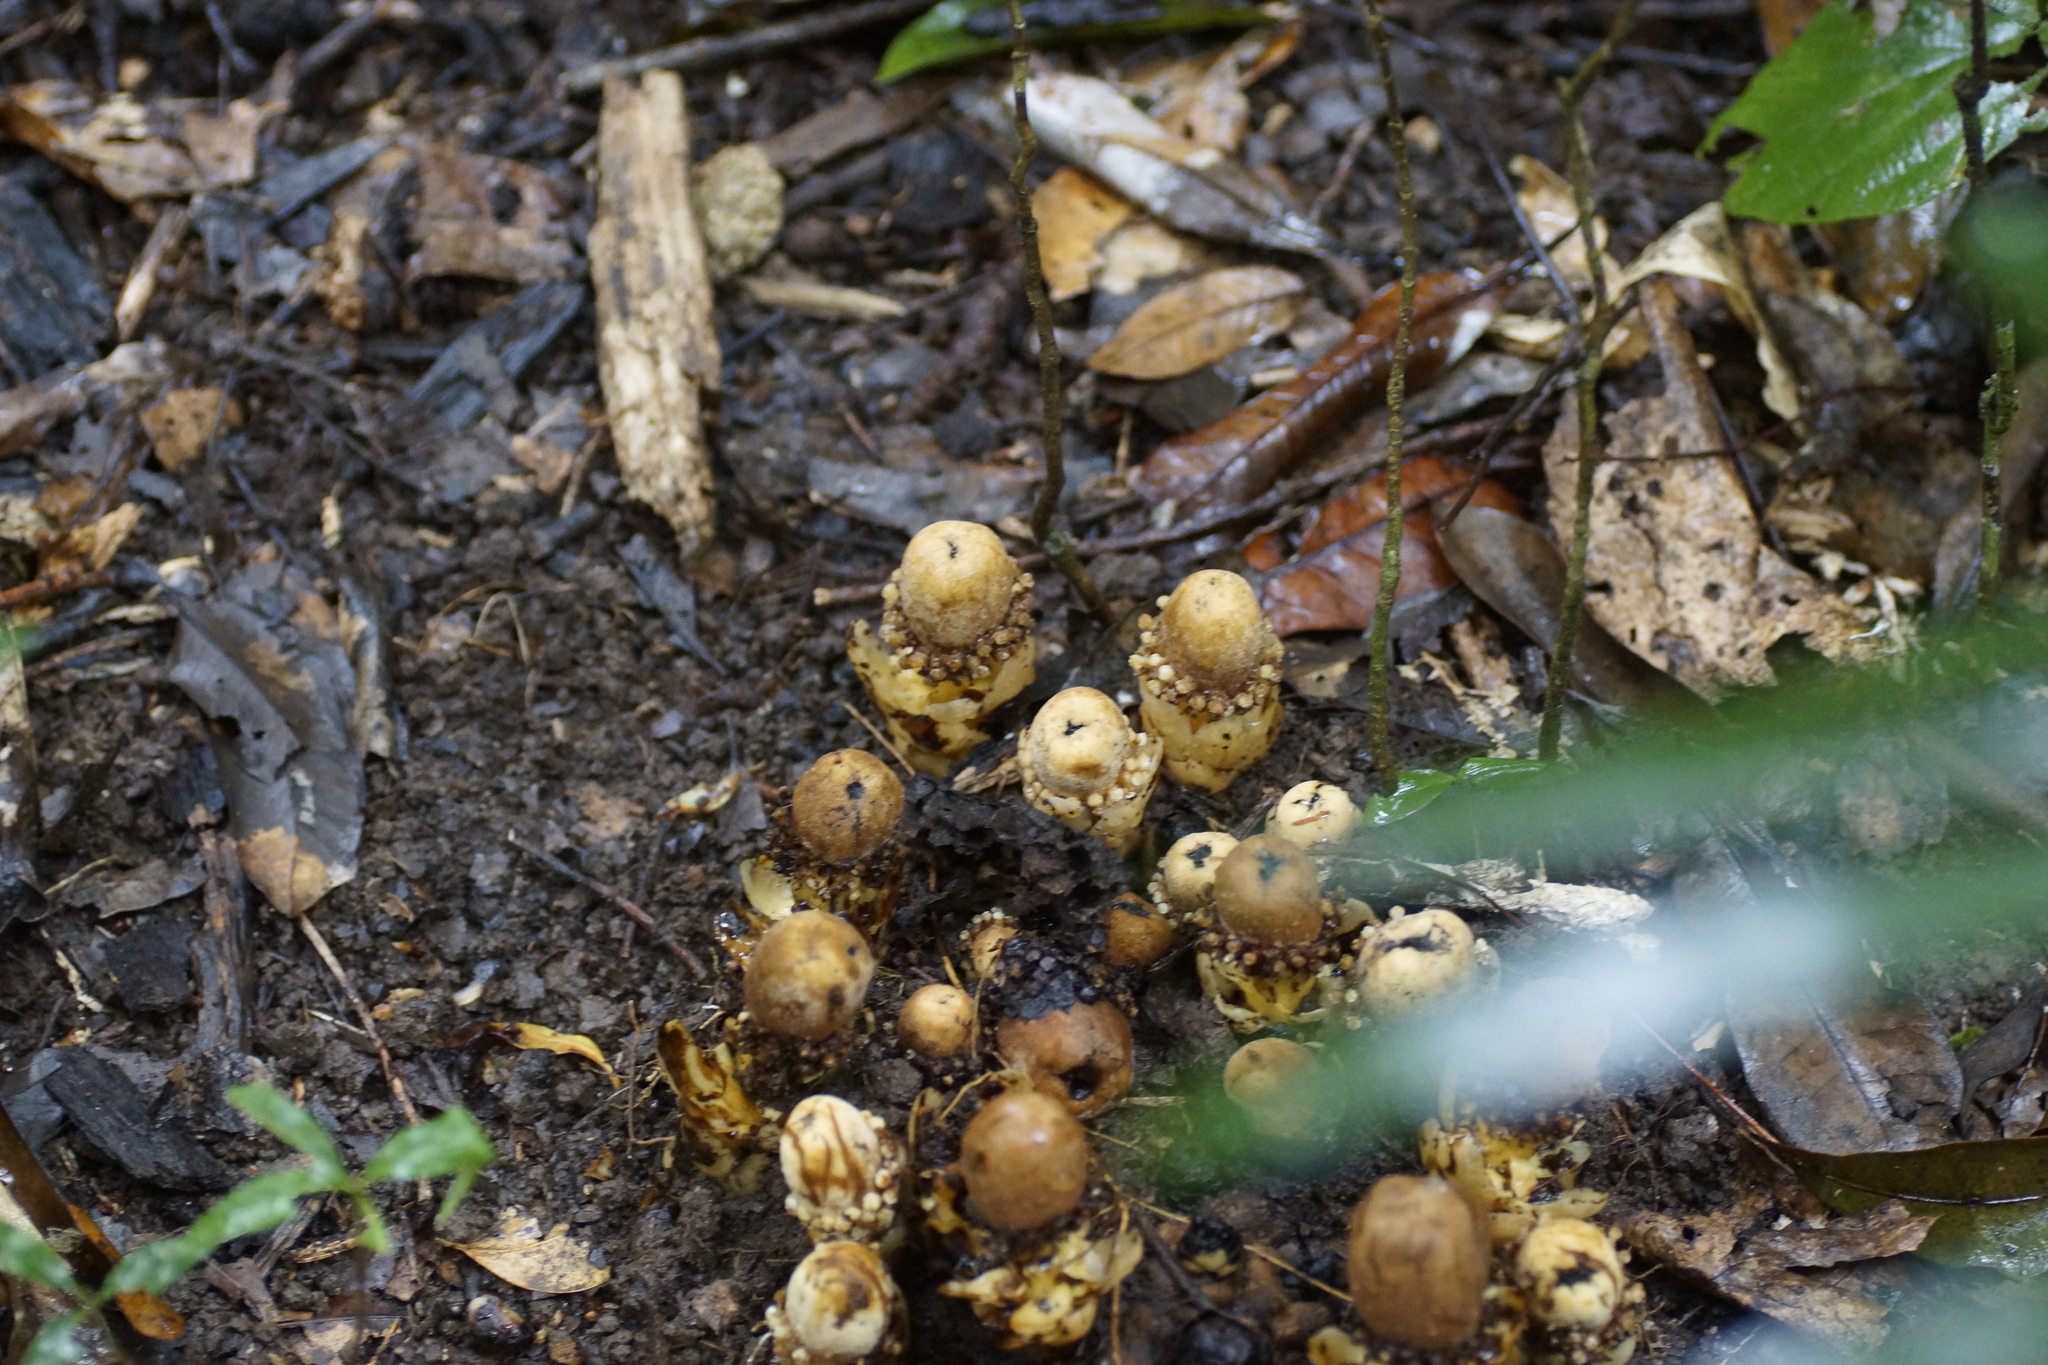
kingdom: Plantae
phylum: Tracheophyta
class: Magnoliopsida
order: Santalales
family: Balanophoraceae
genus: Balanophora
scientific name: Balanophora fungosa
